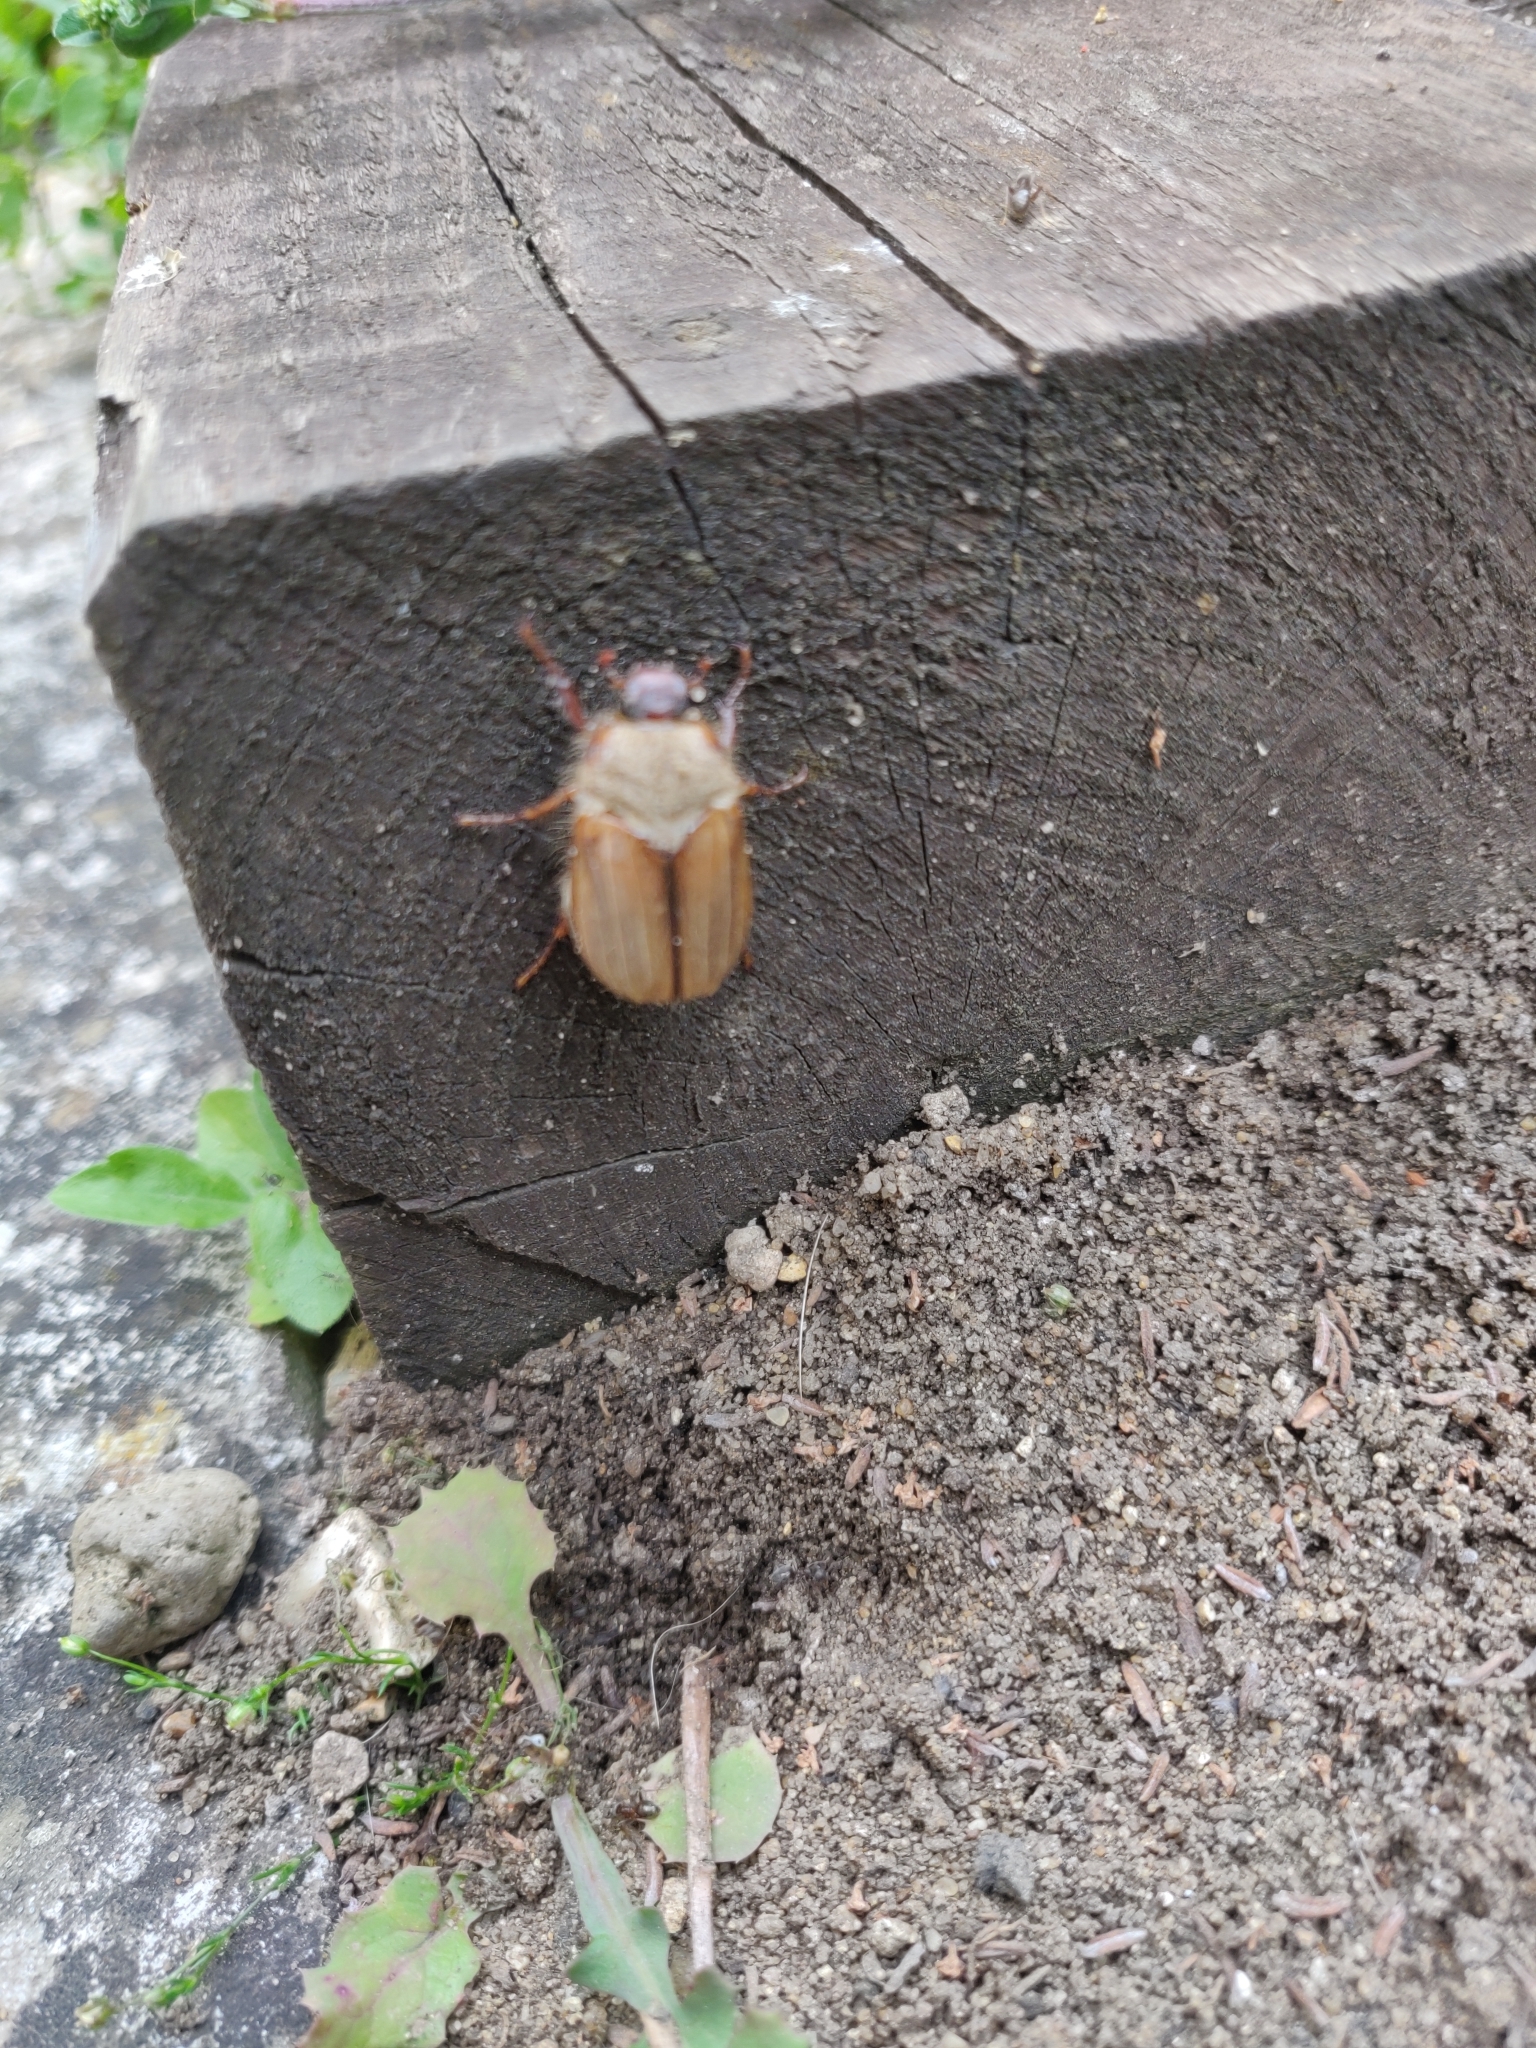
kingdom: Animalia
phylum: Arthropoda
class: Insecta
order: Coleoptera
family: Scarabaeidae
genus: Amphimallon
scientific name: Amphimallon solstitiale
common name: Summer chafer
